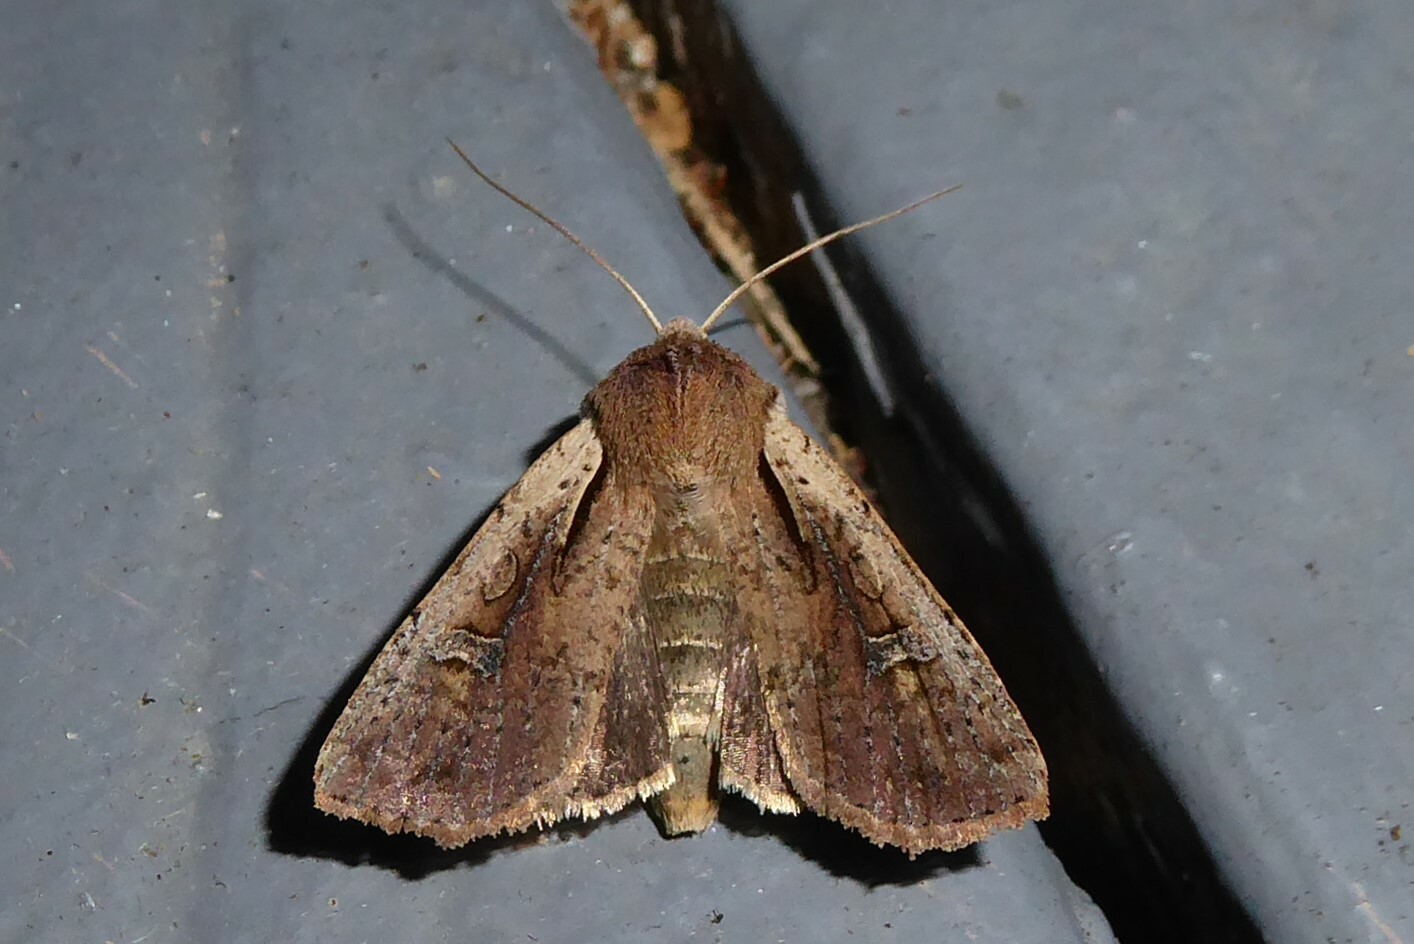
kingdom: Animalia
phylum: Arthropoda
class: Insecta
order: Lepidoptera
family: Noctuidae
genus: Ichneutica
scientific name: Ichneutica atristriga
